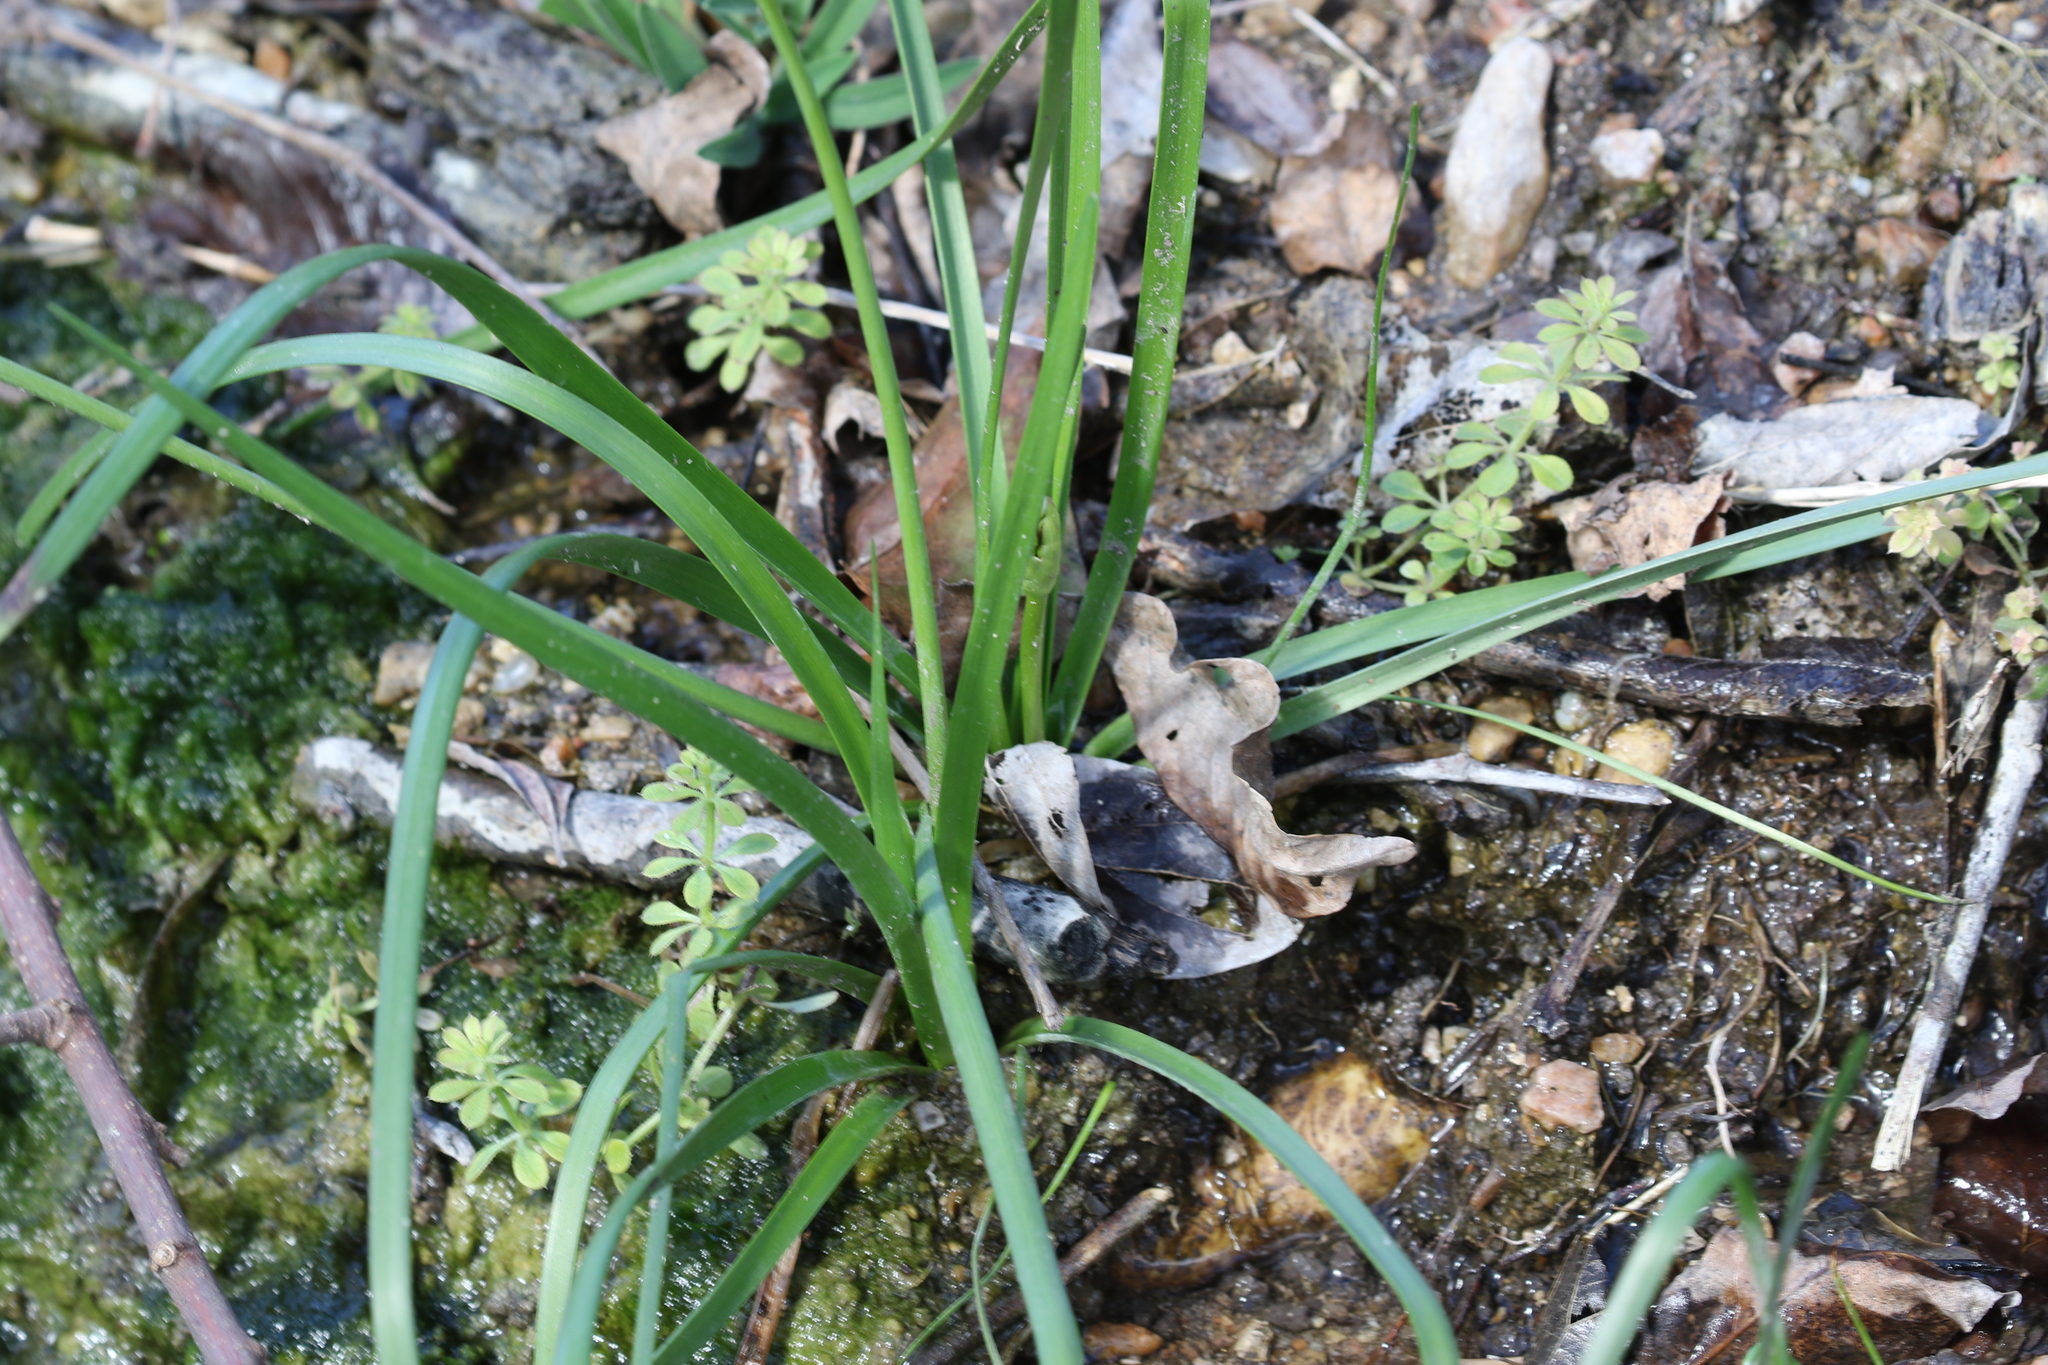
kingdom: Plantae
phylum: Tracheophyta
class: Liliopsida
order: Asparagales
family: Amaryllidaceae
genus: Nothoscordum
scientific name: Nothoscordum bivalve
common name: Crow-poison
